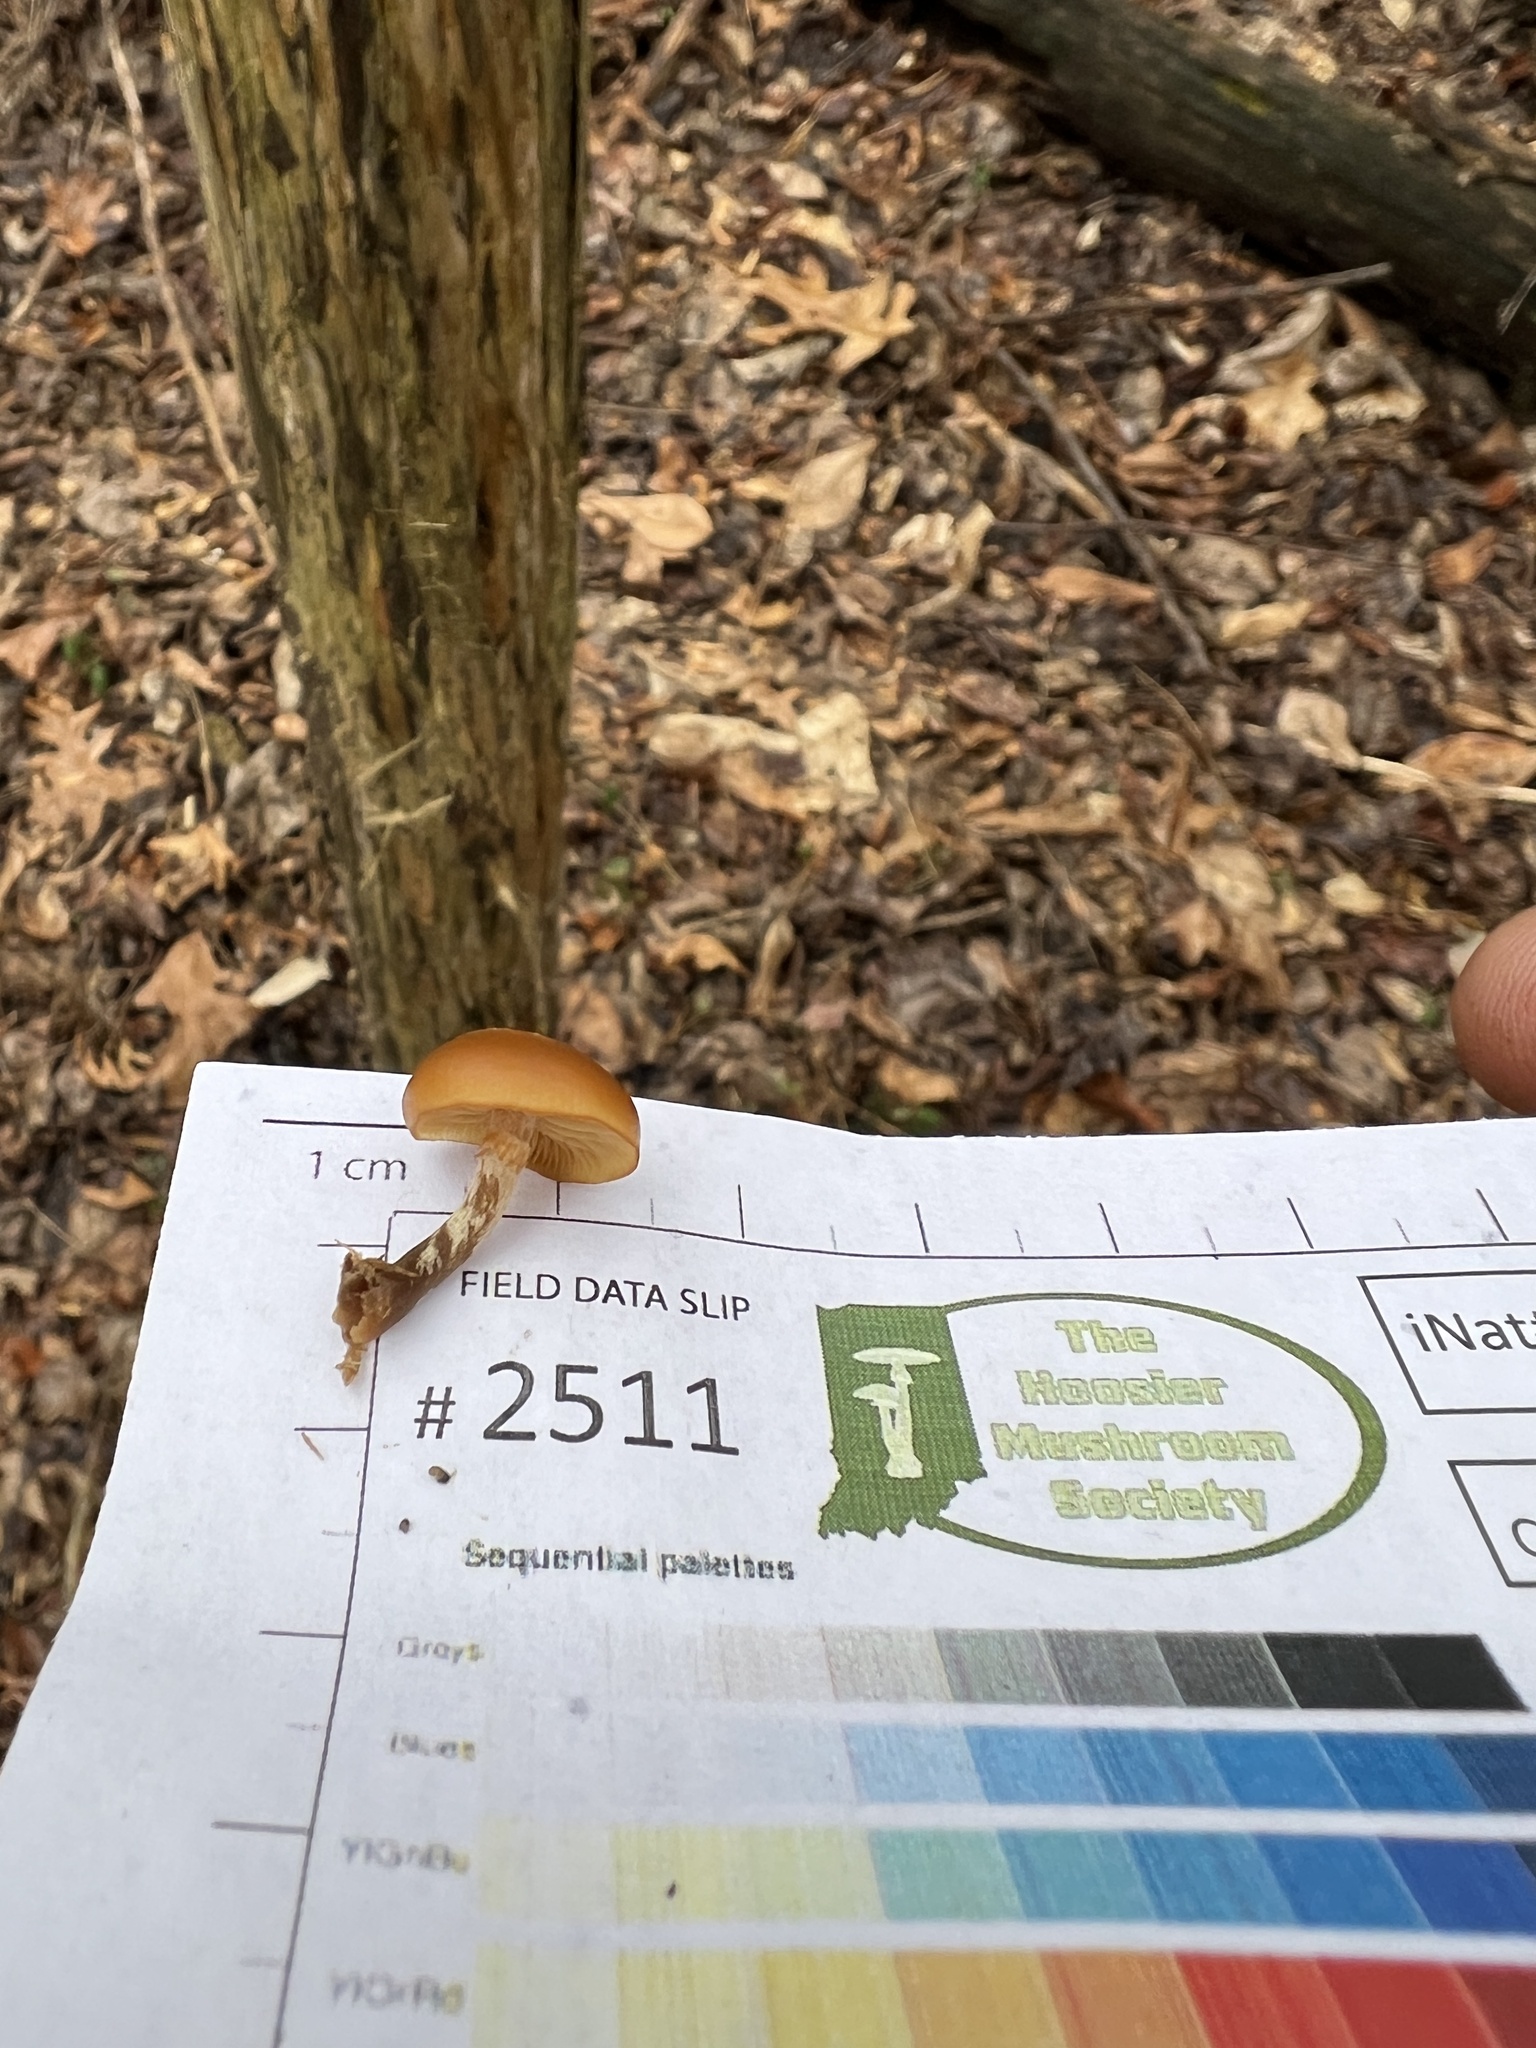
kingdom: Fungi
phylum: Basidiomycota
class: Agaricomycetes
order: Agaricales
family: Hymenogastraceae
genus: Galerina
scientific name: Galerina marginata
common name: Funeral bell
